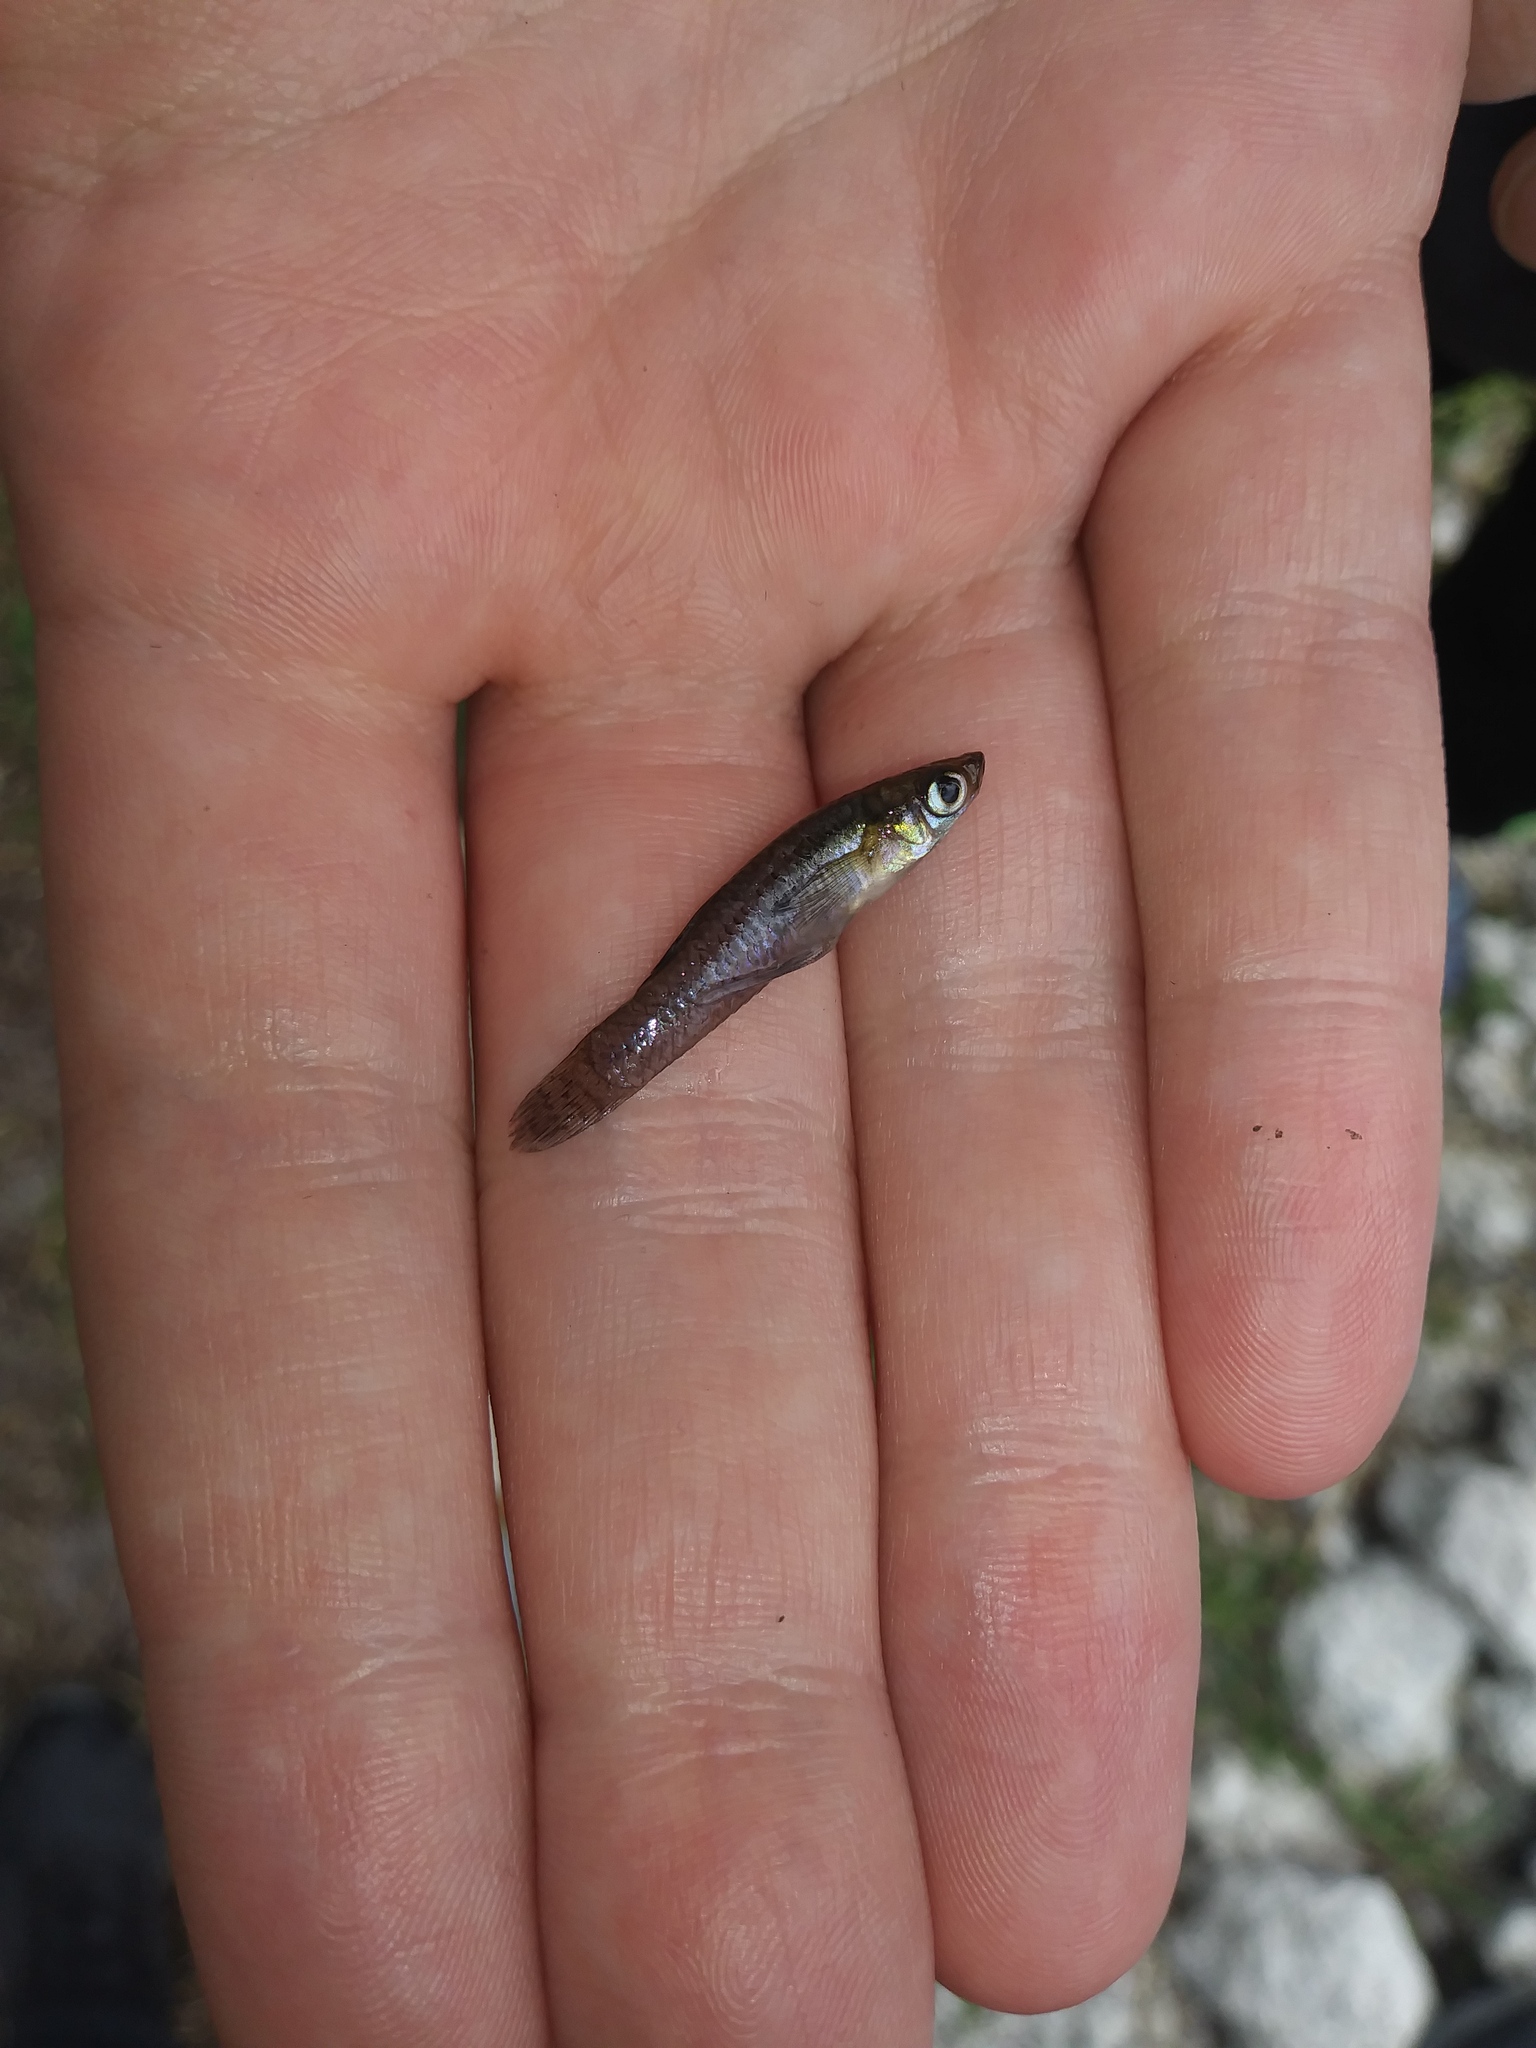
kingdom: Animalia
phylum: Chordata
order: Cyprinodontiformes
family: Poeciliidae
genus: Gambusia
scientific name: Gambusia holbrooki
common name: Eastern mosquitofish
